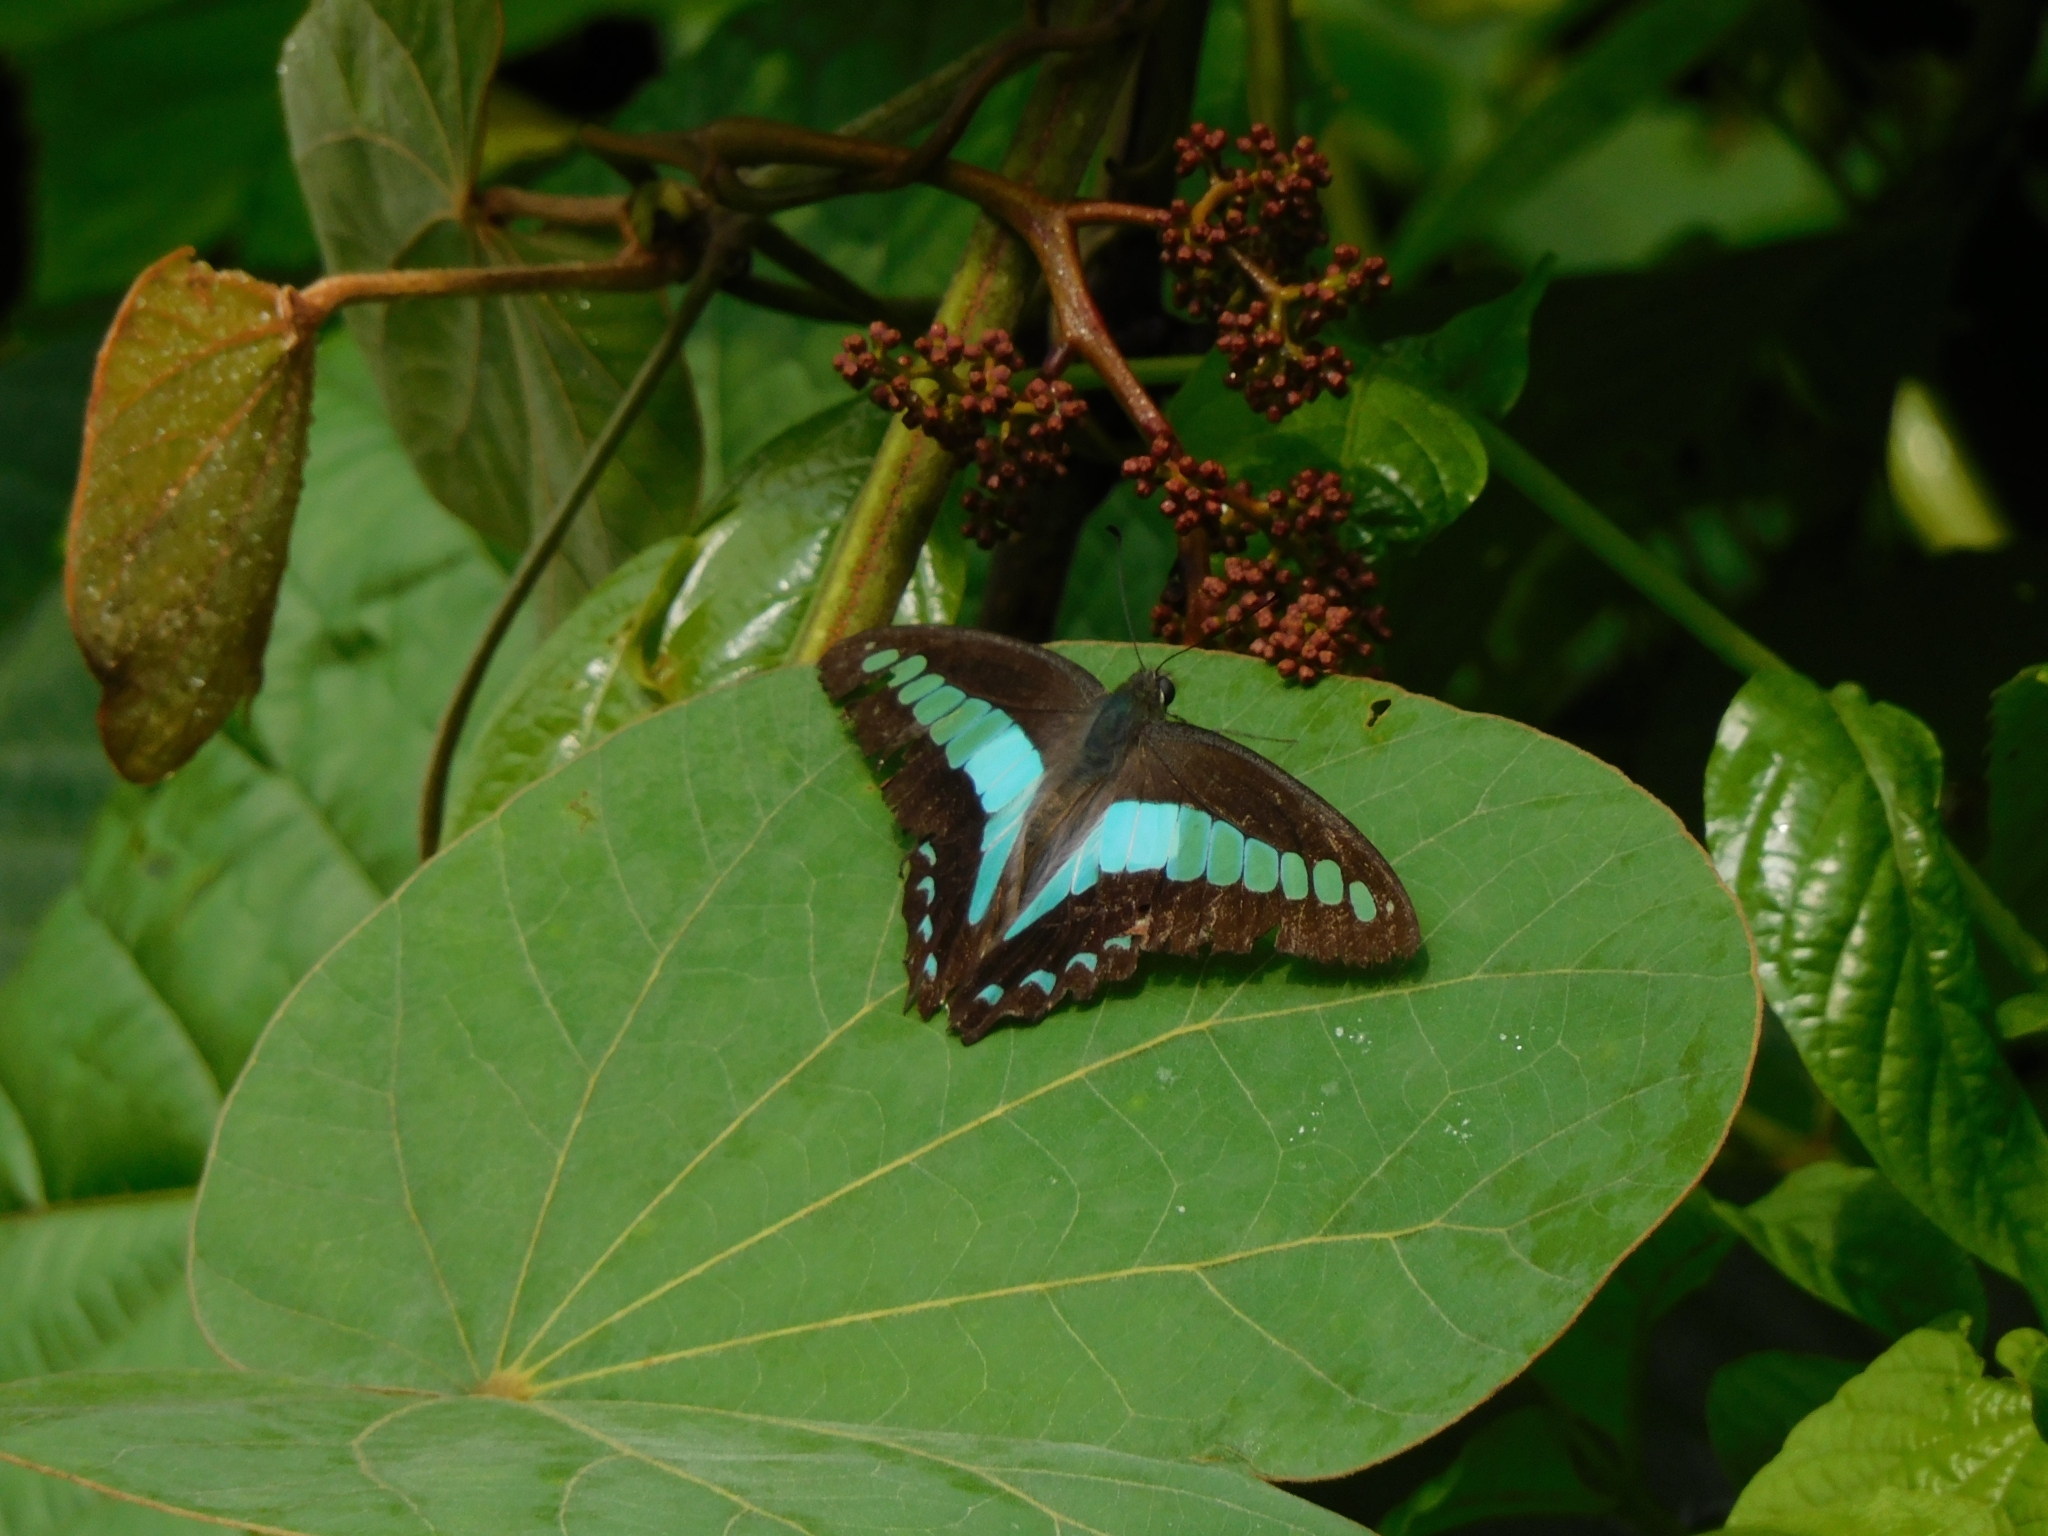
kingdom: Fungi
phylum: Ascomycota
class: Sordariomycetes
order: Microascales
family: Microascaceae
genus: Graphium
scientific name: Graphium sarpedon
